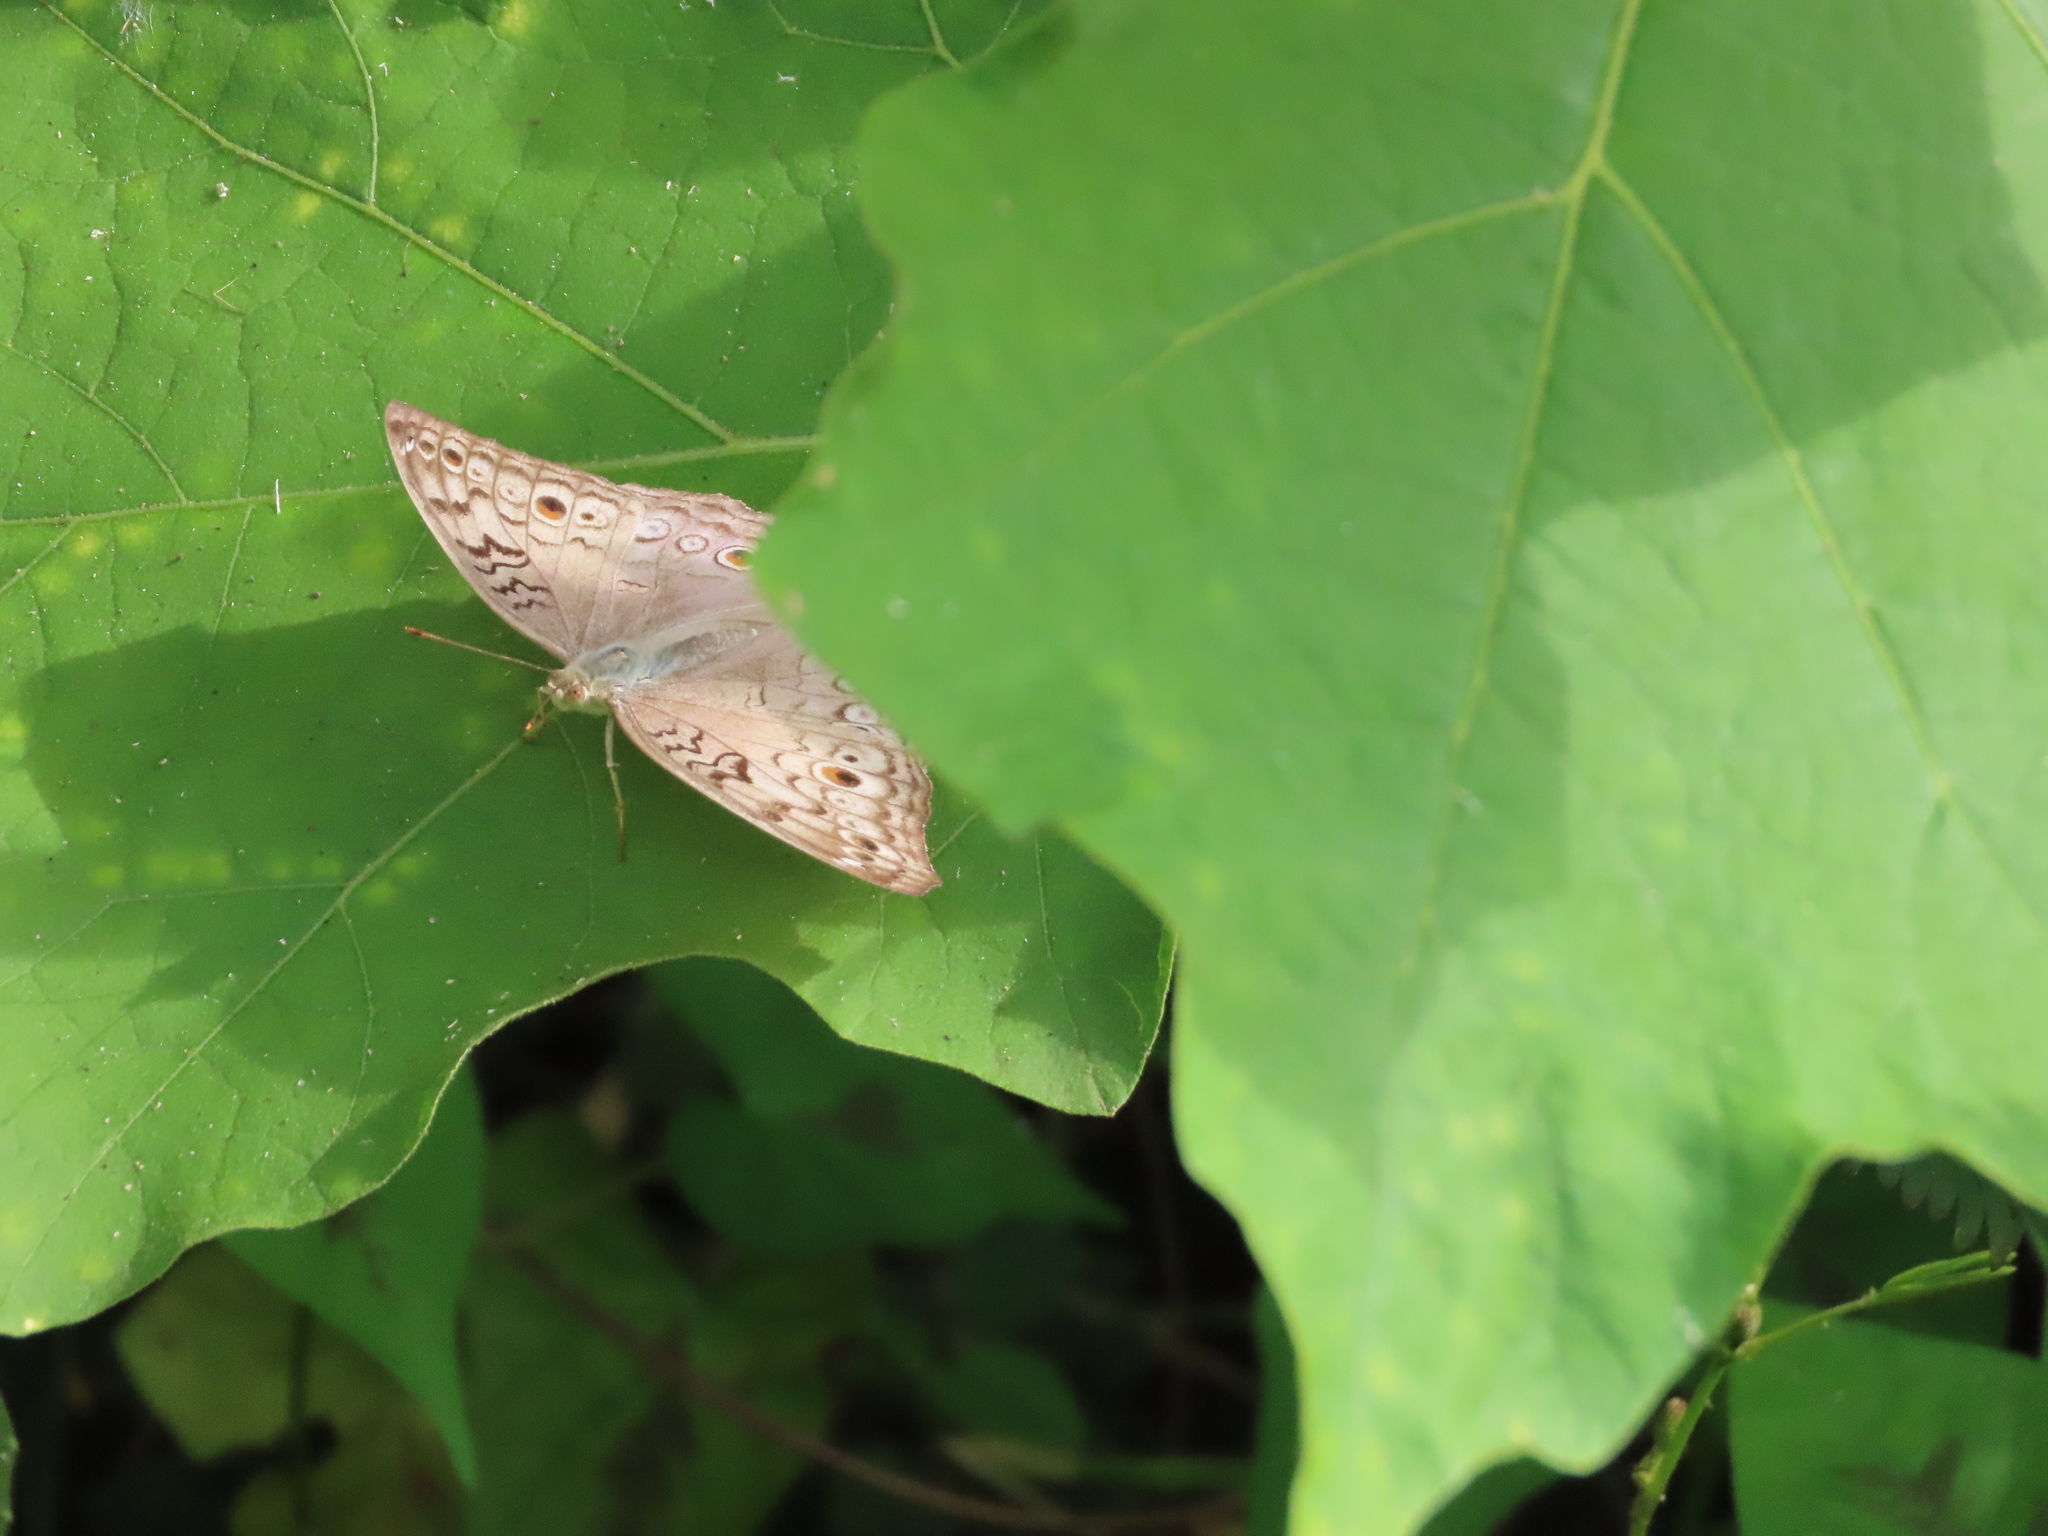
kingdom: Animalia
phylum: Arthropoda
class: Insecta
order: Lepidoptera
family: Nymphalidae
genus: Junonia
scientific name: Junonia atlites
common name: Grey pansy
